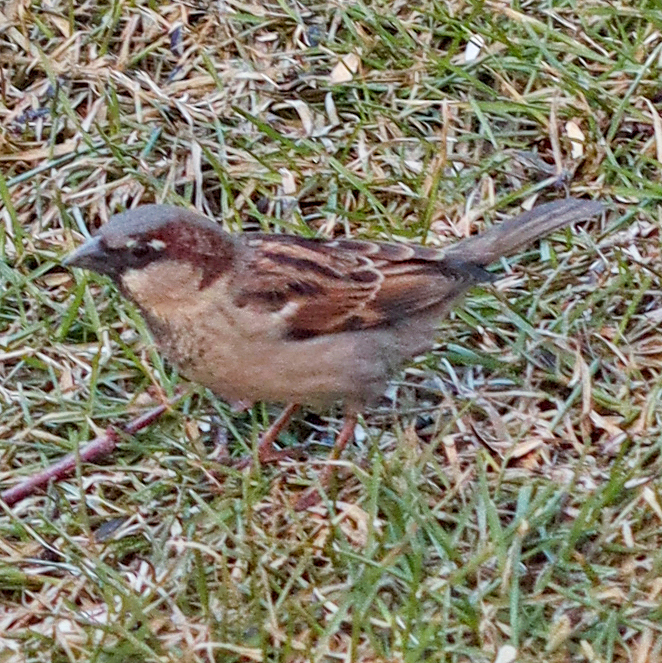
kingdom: Animalia
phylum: Chordata
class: Aves
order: Passeriformes
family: Passeridae
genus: Passer
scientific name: Passer domesticus
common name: House sparrow
